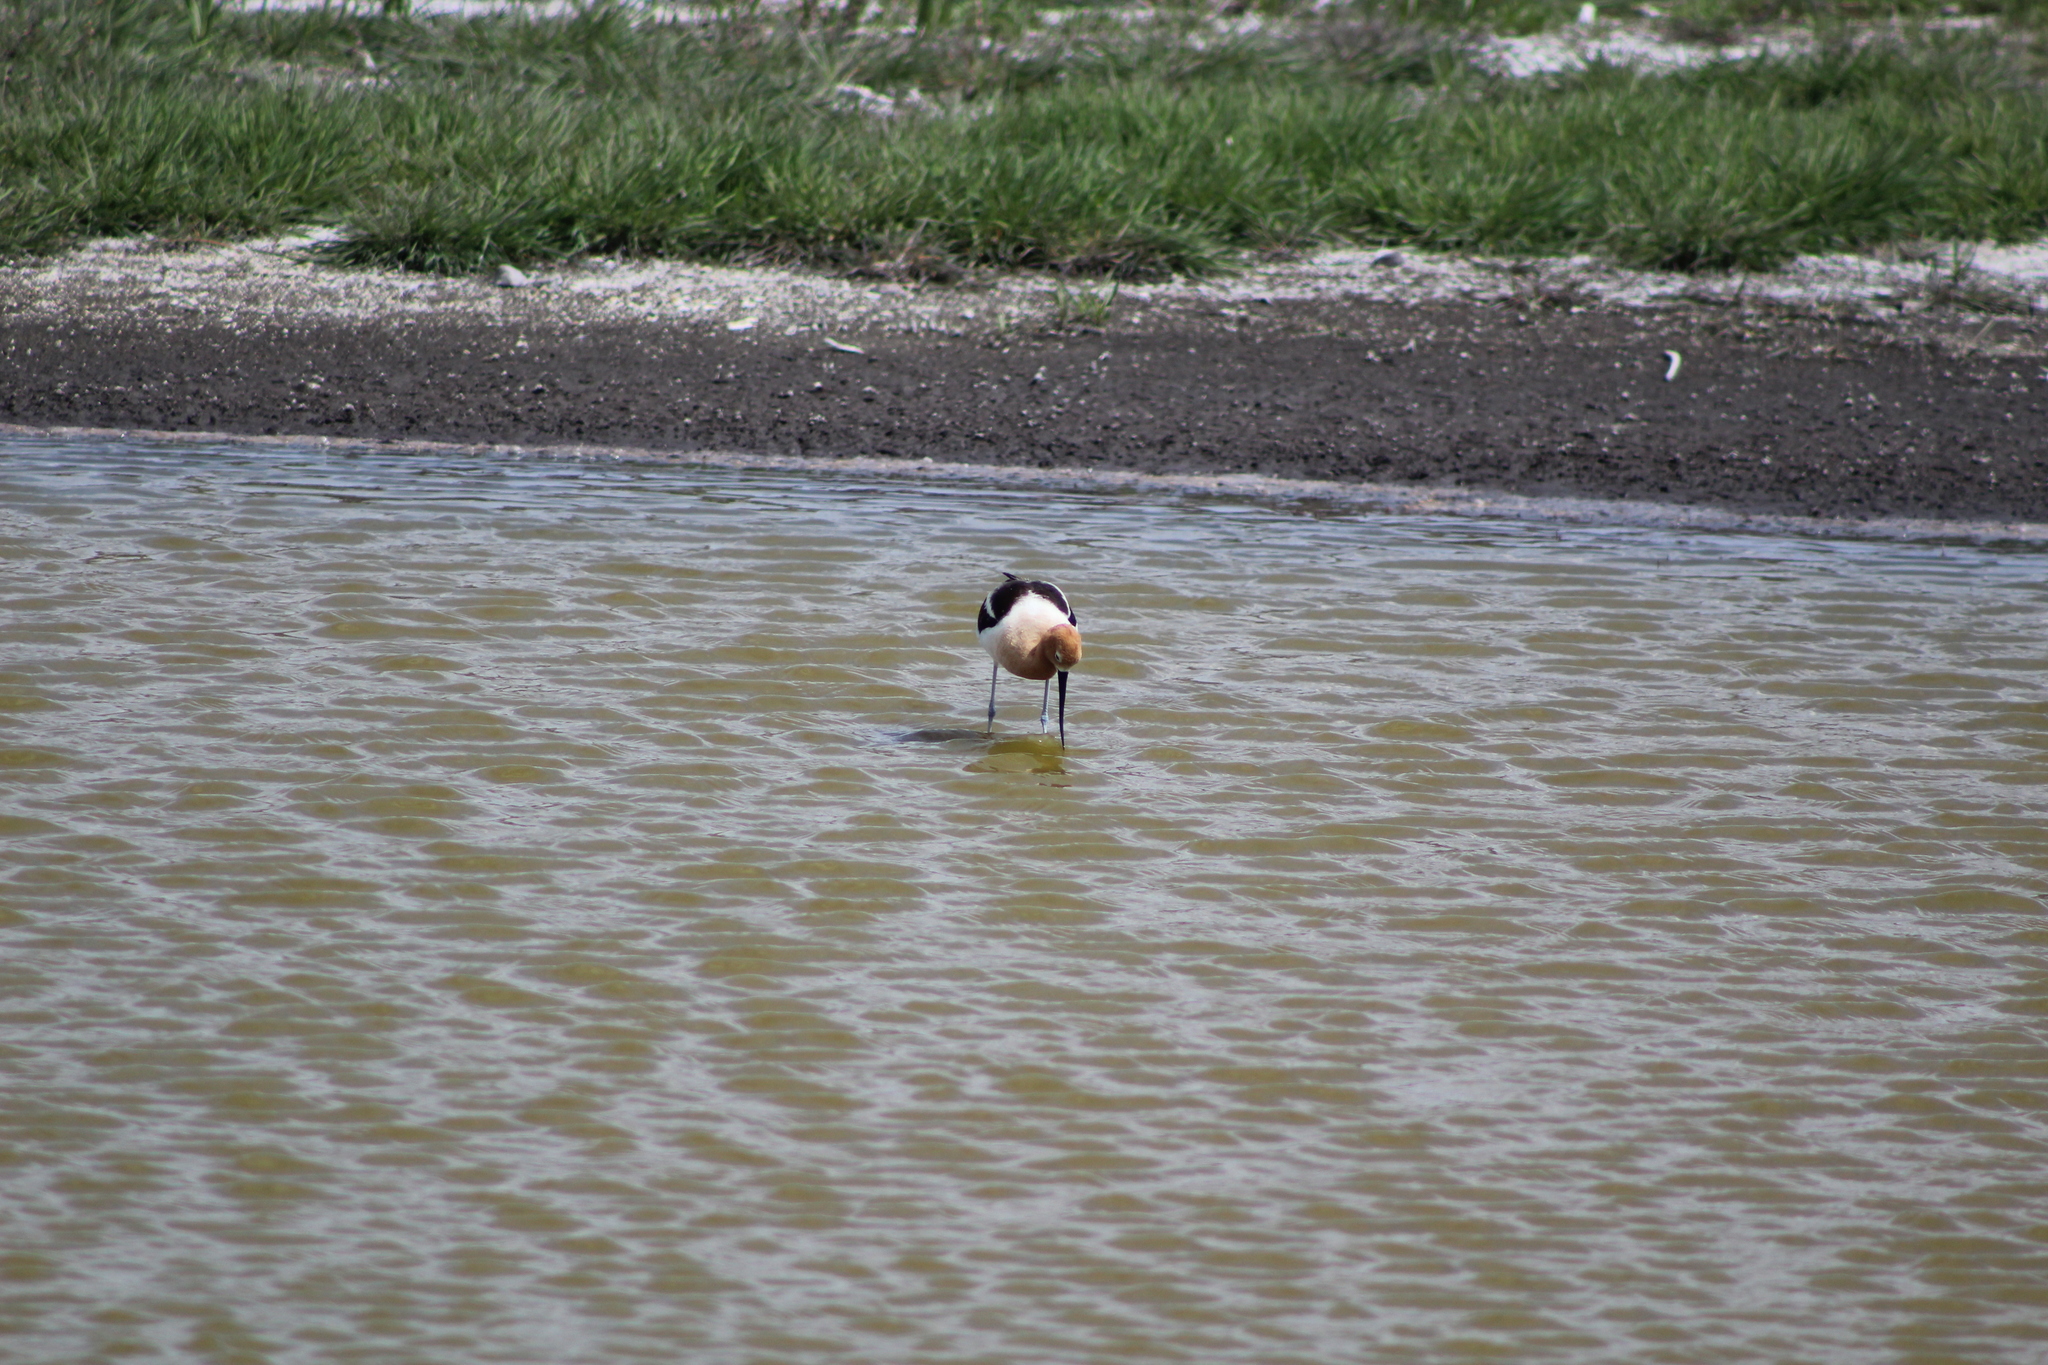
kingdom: Animalia
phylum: Chordata
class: Aves
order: Charadriiformes
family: Recurvirostridae
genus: Recurvirostra
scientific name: Recurvirostra americana
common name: American avocet
